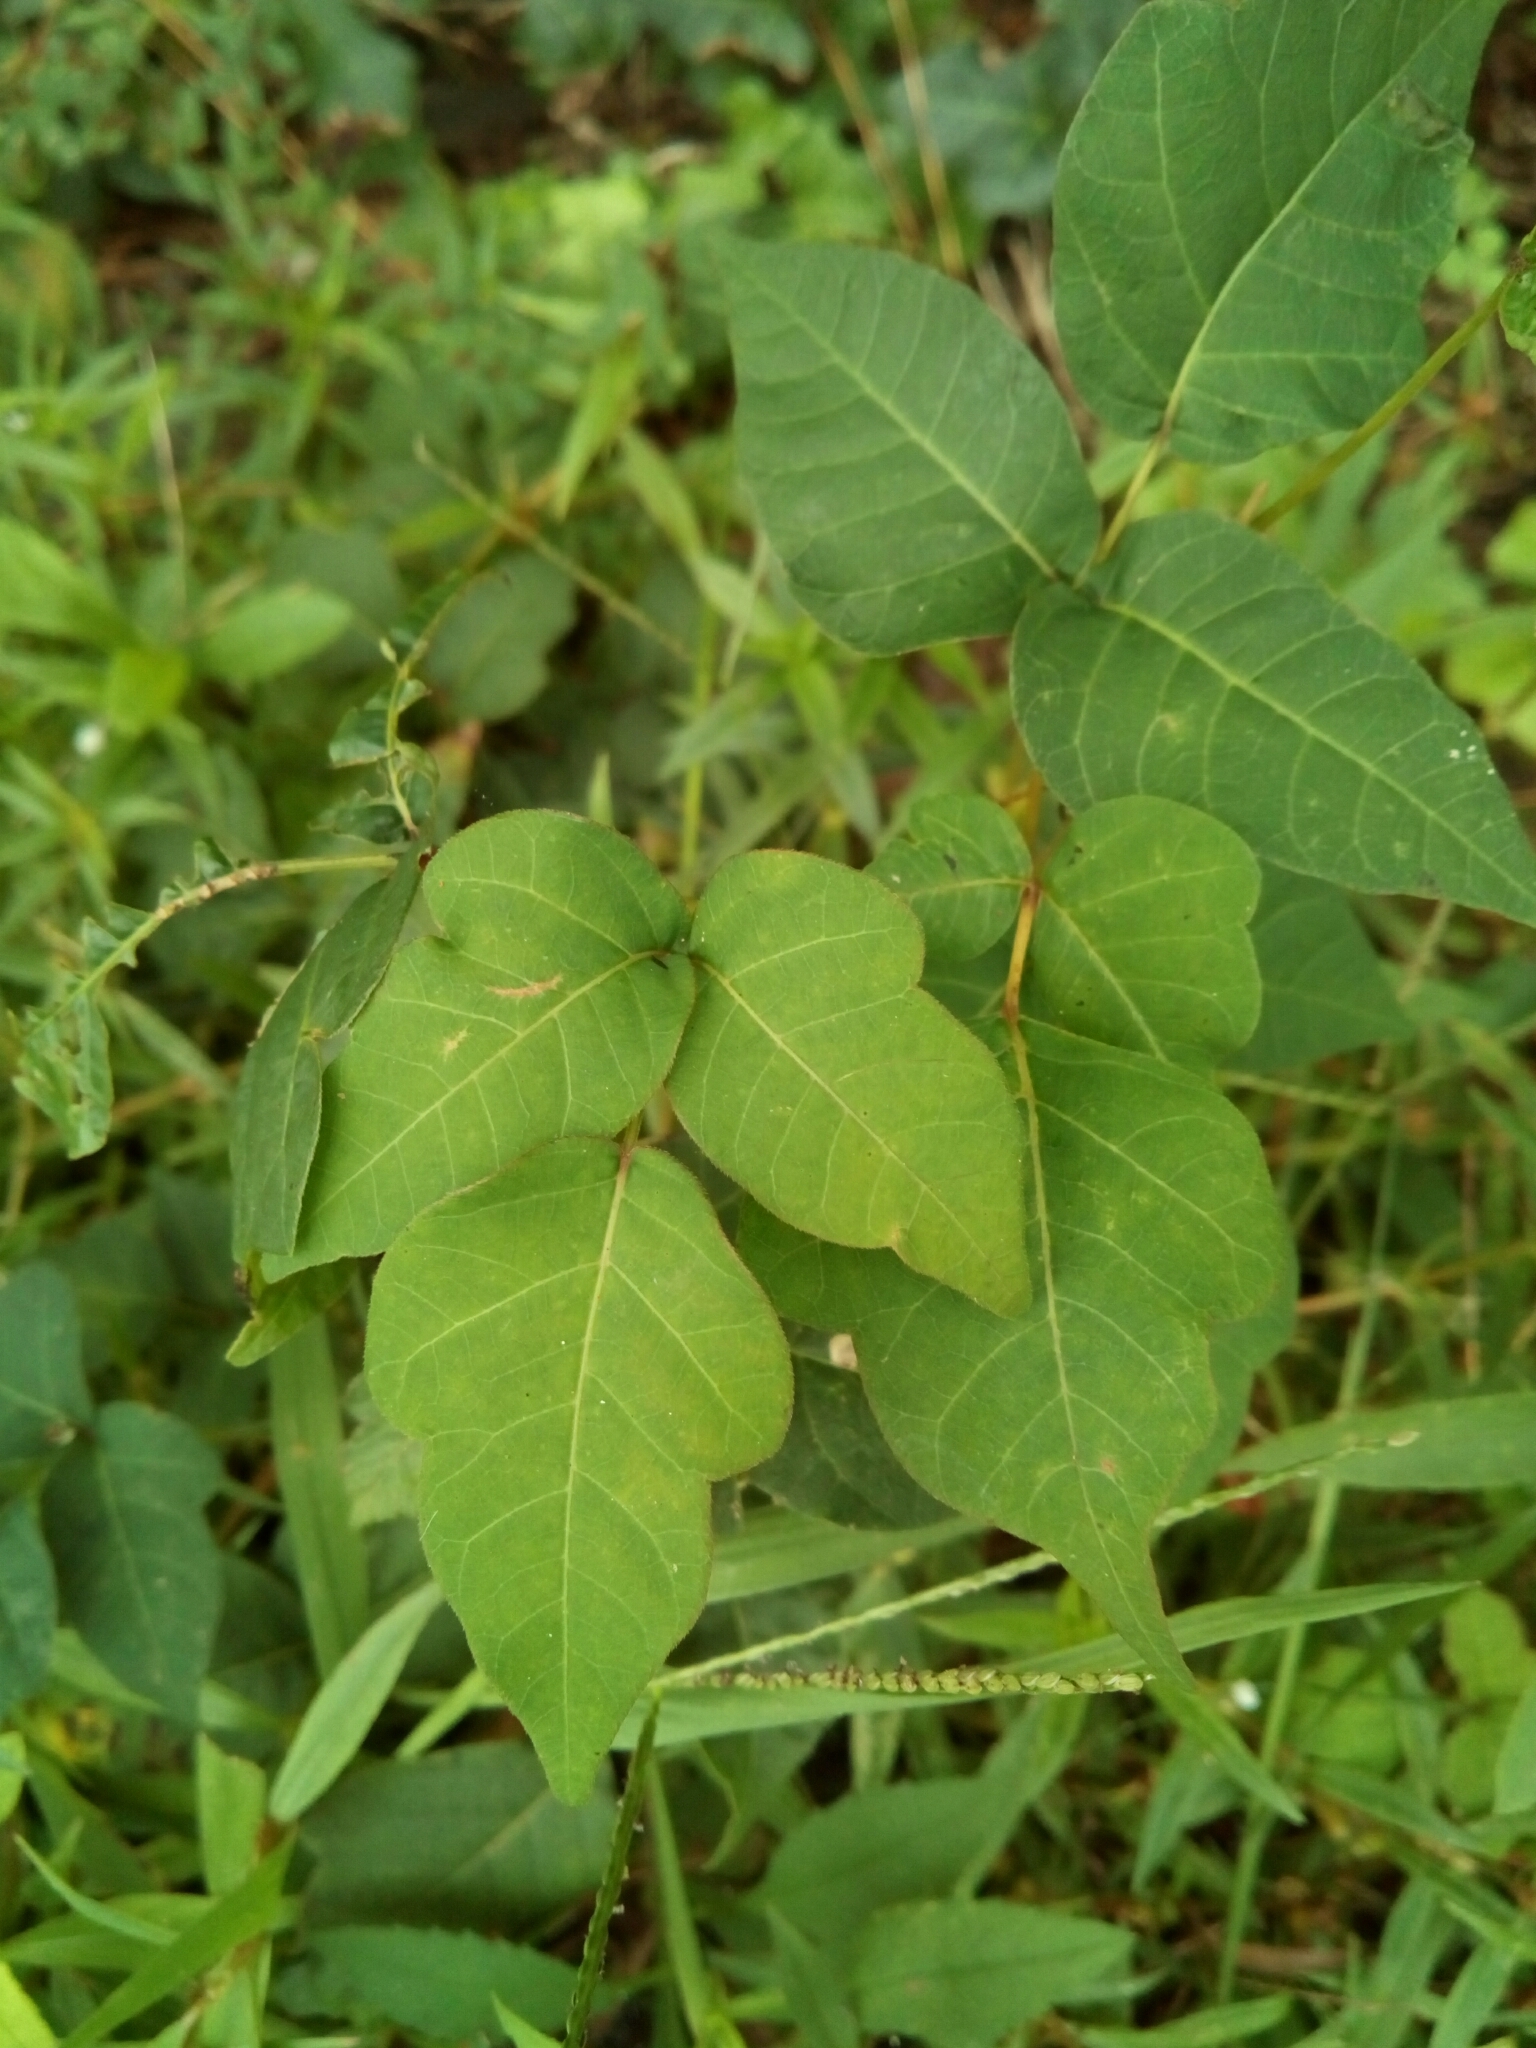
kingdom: Plantae
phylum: Tracheophyta
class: Magnoliopsida
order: Sapindales
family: Anacardiaceae
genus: Toxicodendron
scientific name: Toxicodendron radicans
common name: Poison ivy
